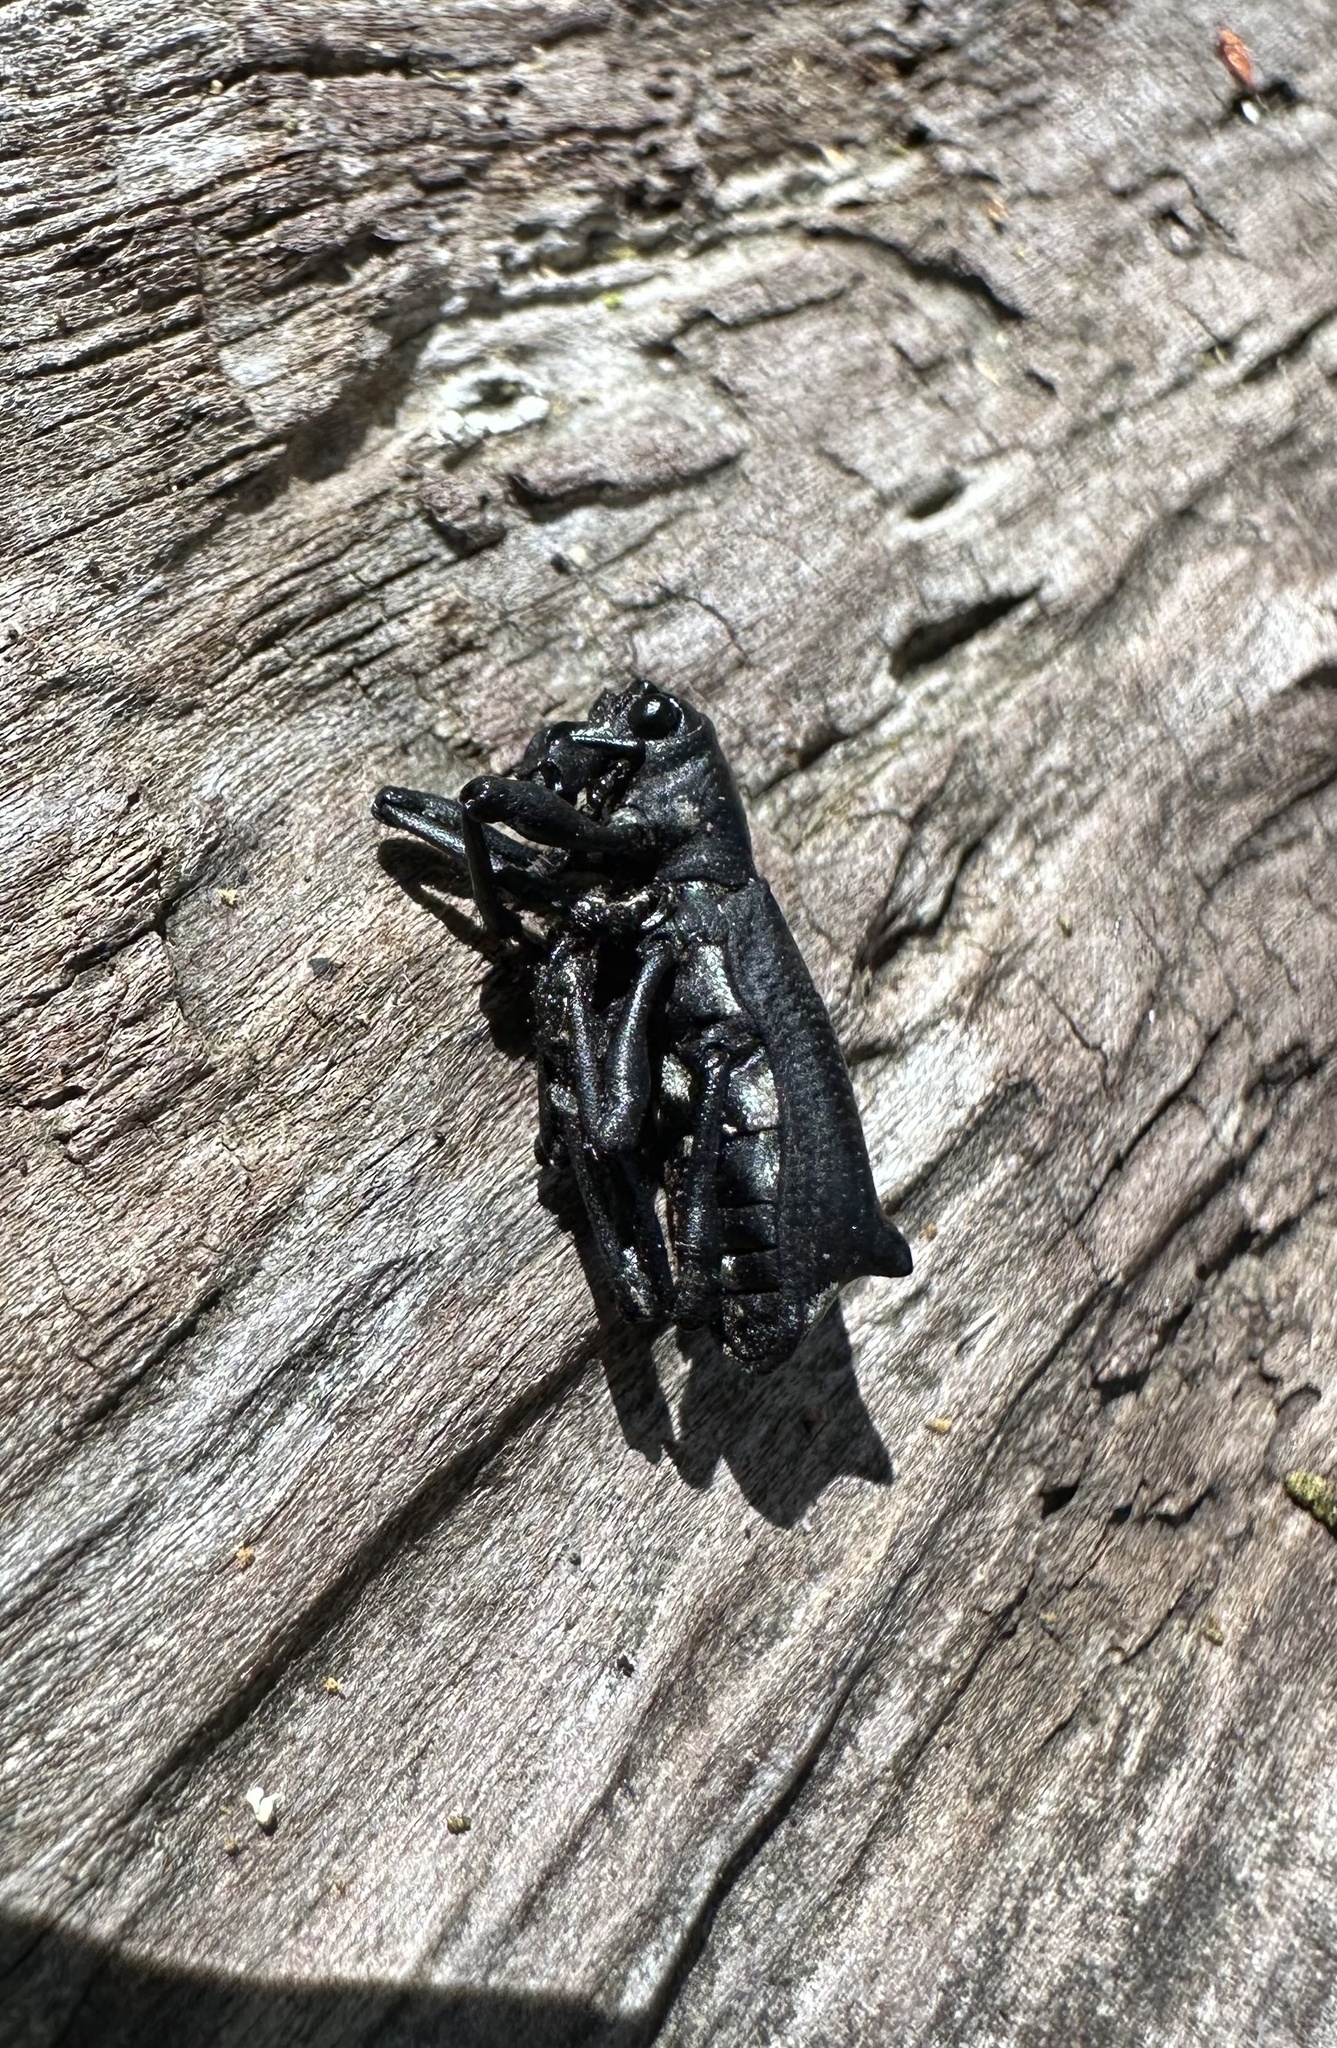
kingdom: Animalia
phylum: Arthropoda
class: Insecta
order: Coleoptera
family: Curculionidae
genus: Aegorhinus
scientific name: Aegorhinus
